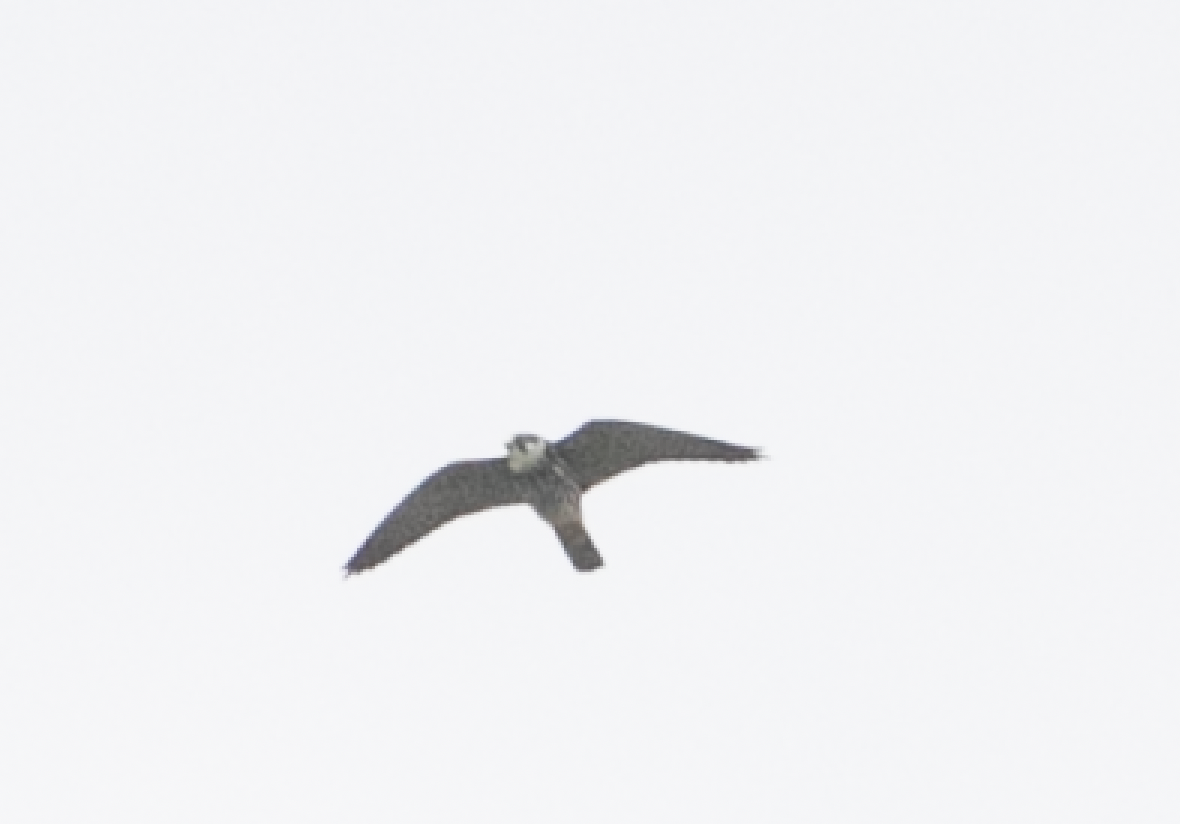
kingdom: Animalia
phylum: Chordata
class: Aves
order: Falconiformes
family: Falconidae
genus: Falco
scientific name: Falco subbuteo
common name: Eurasian hobby
